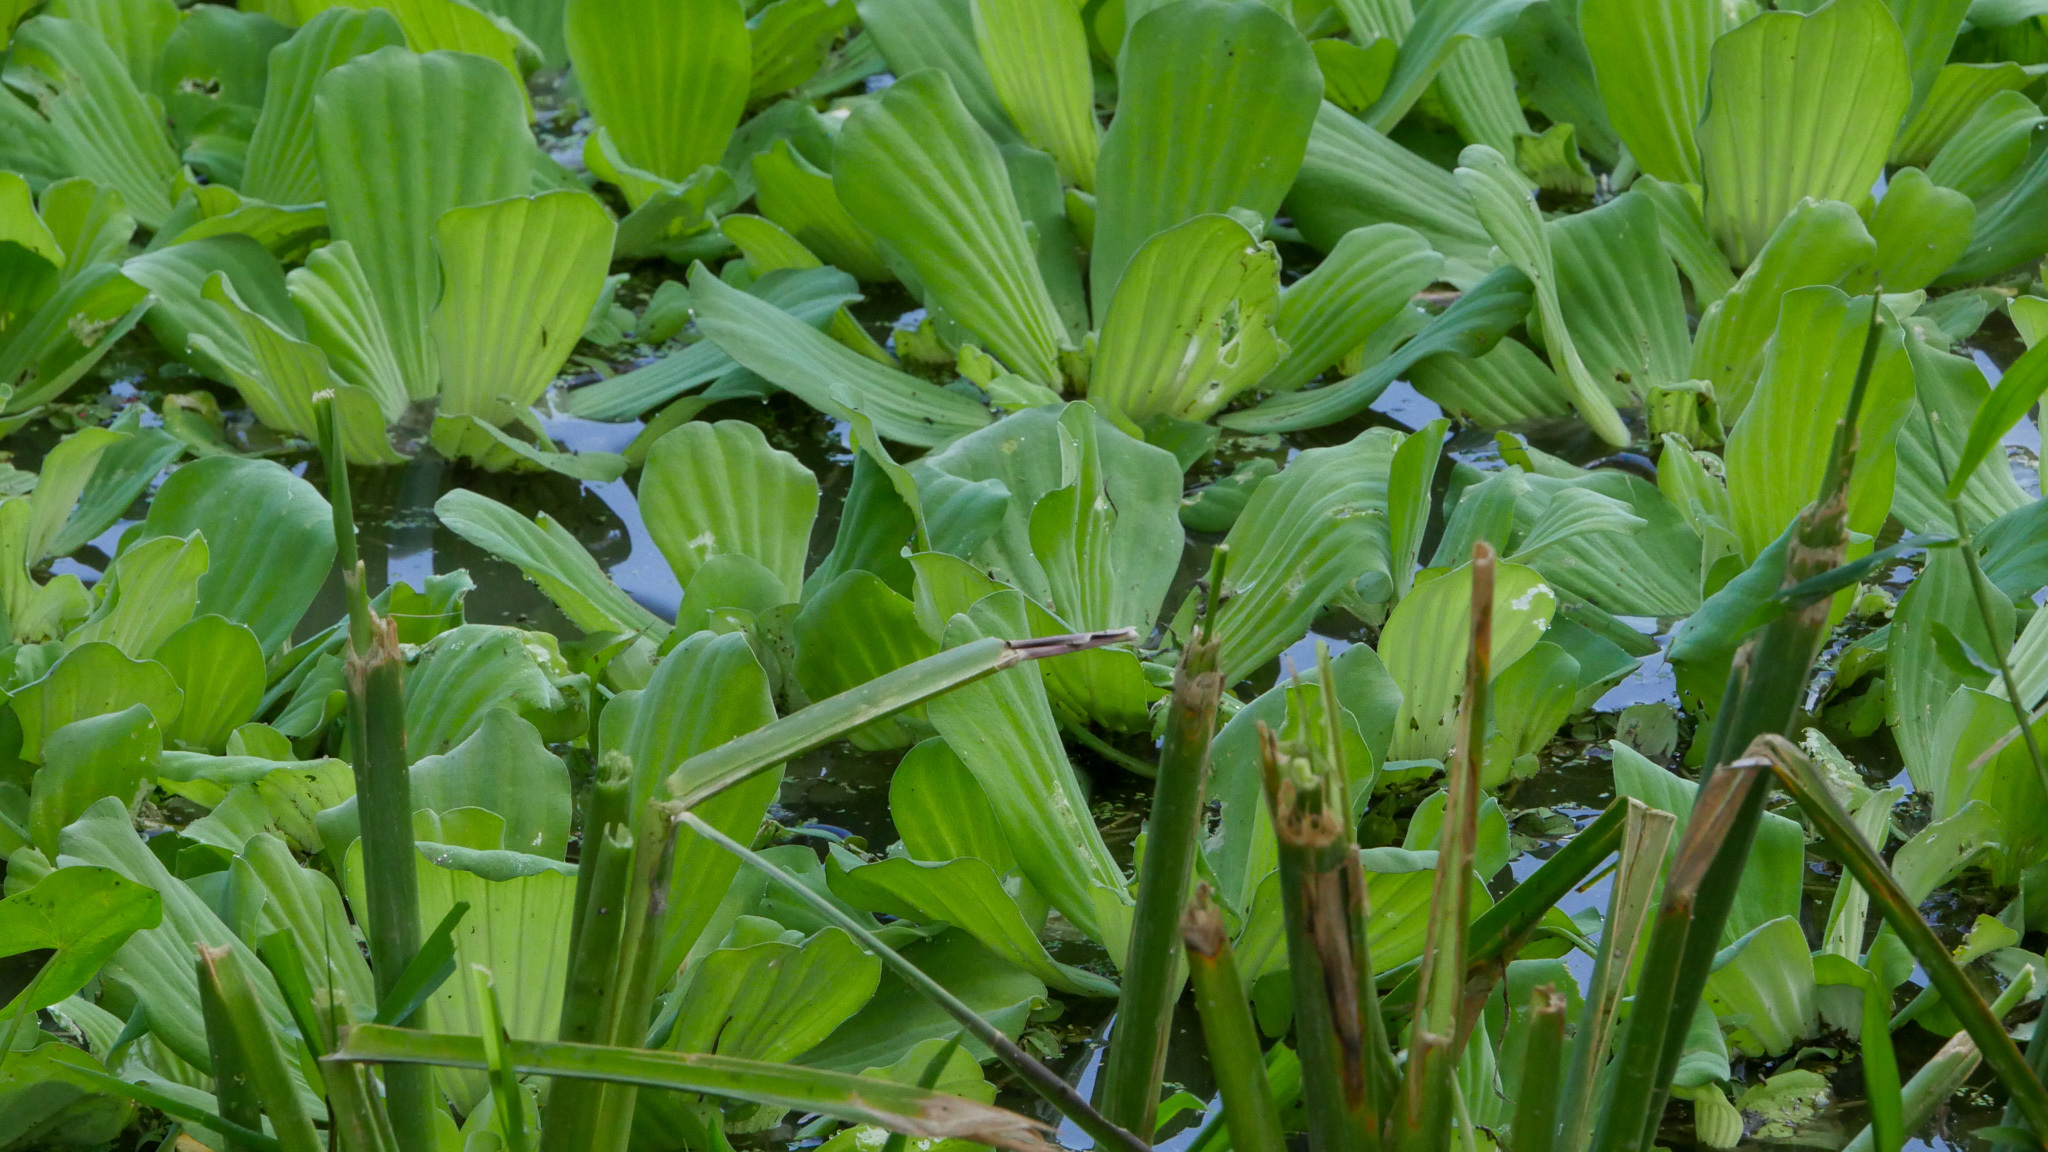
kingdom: Plantae
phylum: Tracheophyta
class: Liliopsida
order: Alismatales
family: Araceae
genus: Pistia
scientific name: Pistia stratiotes
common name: Water lettuce
